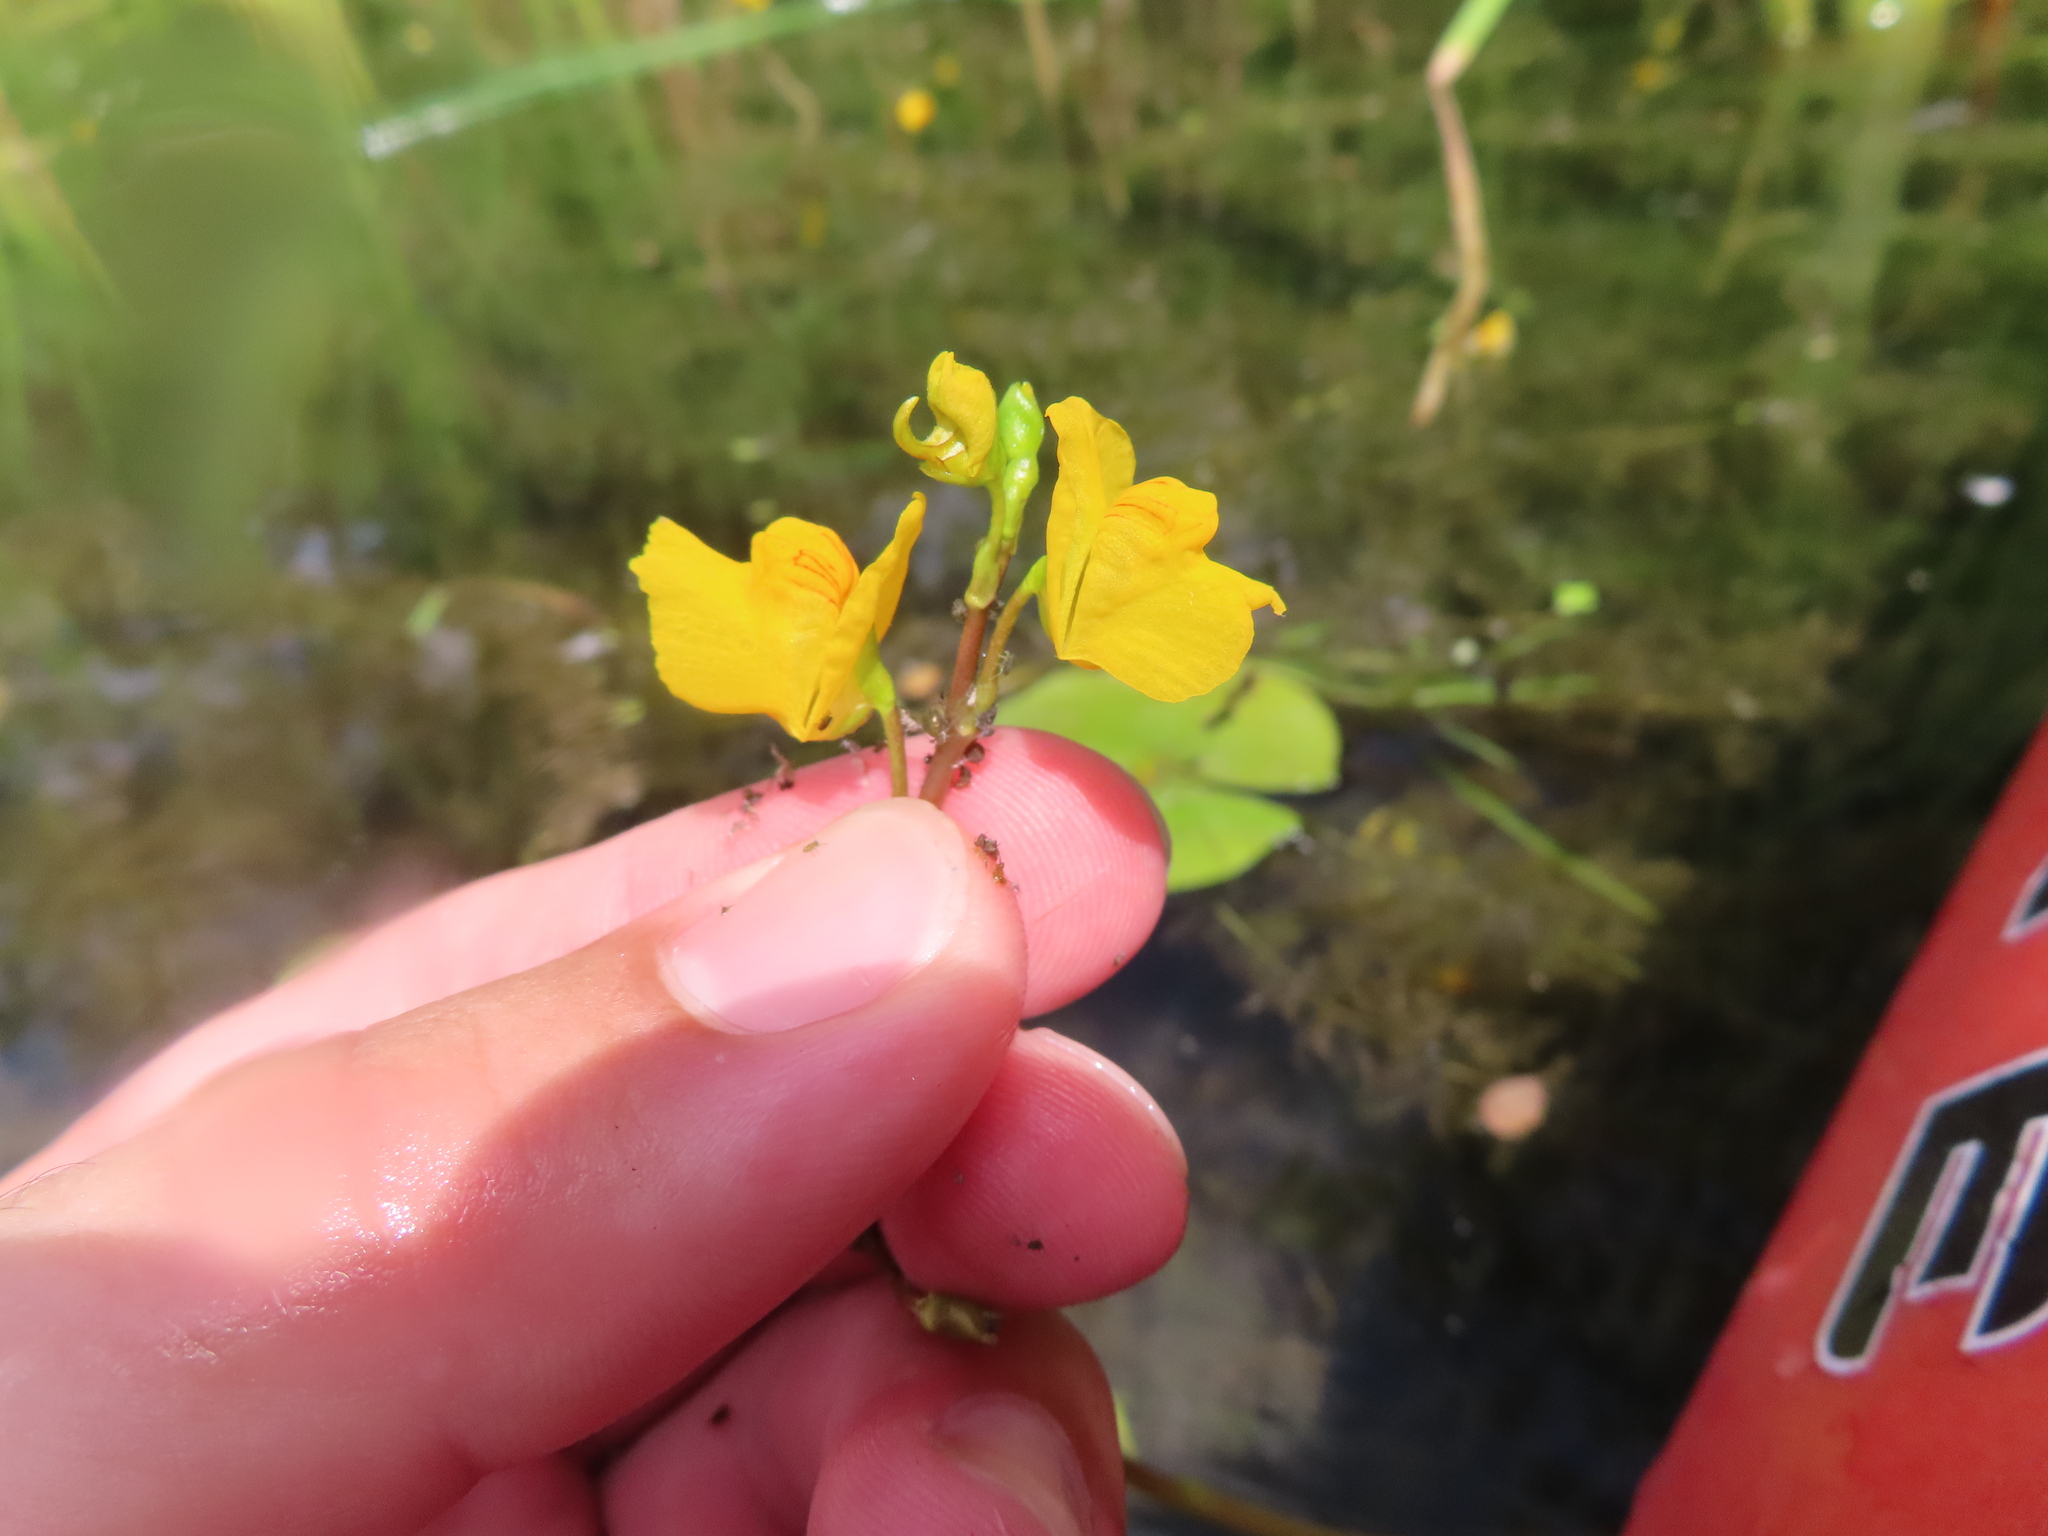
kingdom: Plantae
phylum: Tracheophyta
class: Magnoliopsida
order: Lamiales
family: Lentibulariaceae
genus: Utricularia
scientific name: Utricularia macrorhiza
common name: Common bladderwort
